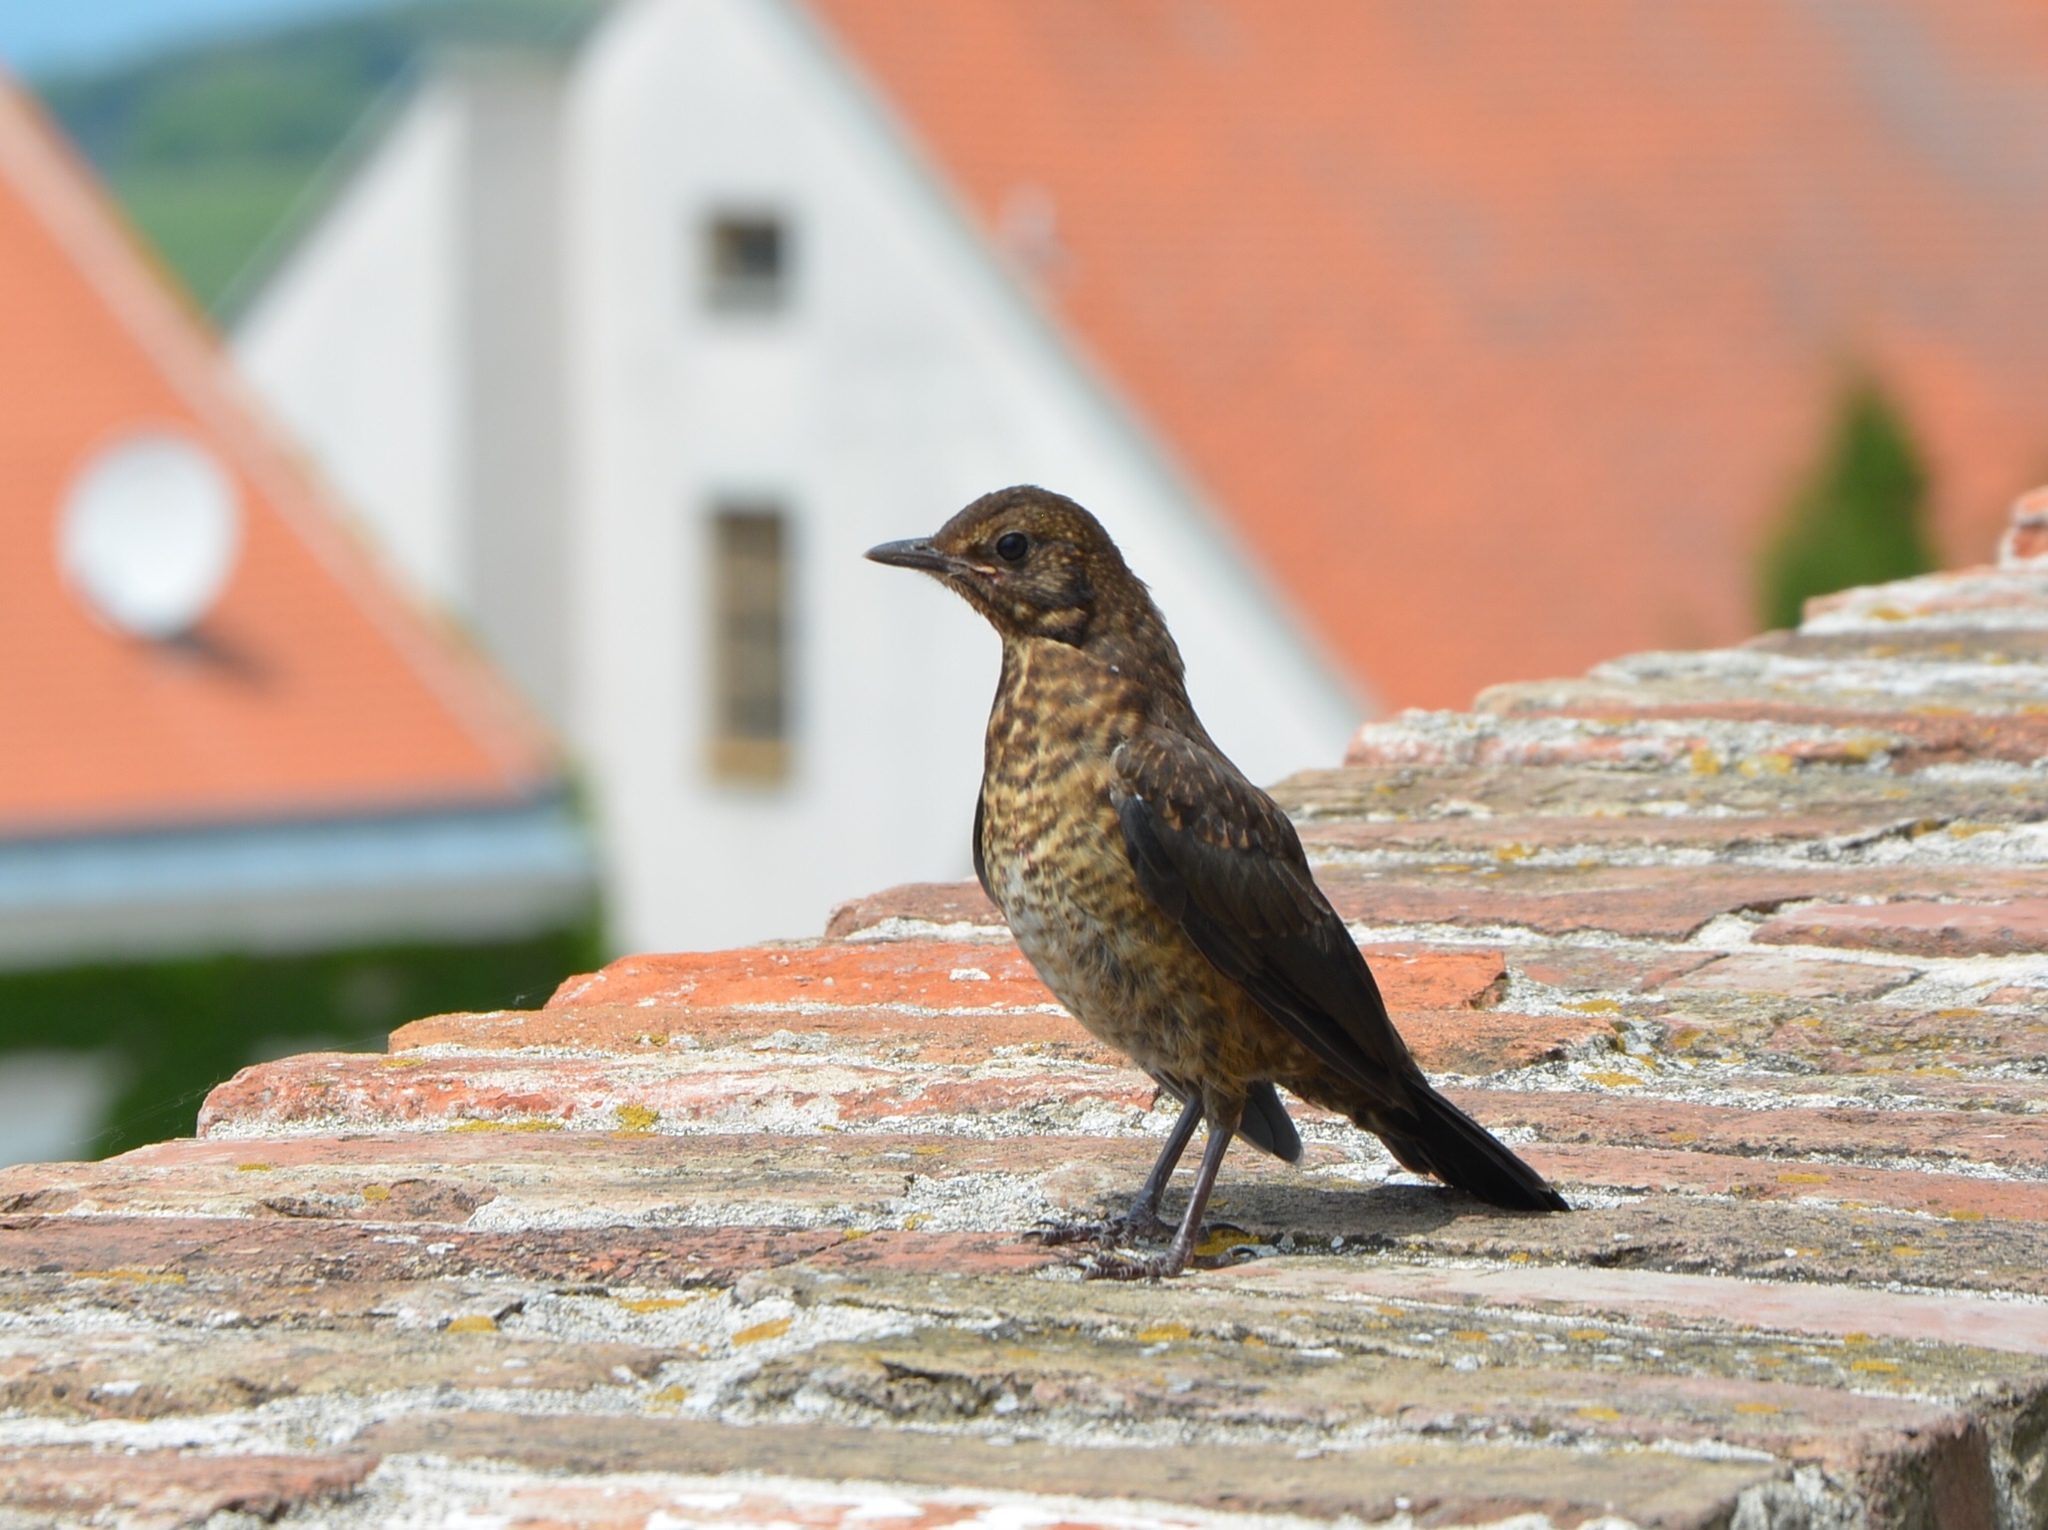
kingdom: Animalia
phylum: Chordata
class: Aves
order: Passeriformes
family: Turdidae
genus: Turdus
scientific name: Turdus merula
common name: Common blackbird
